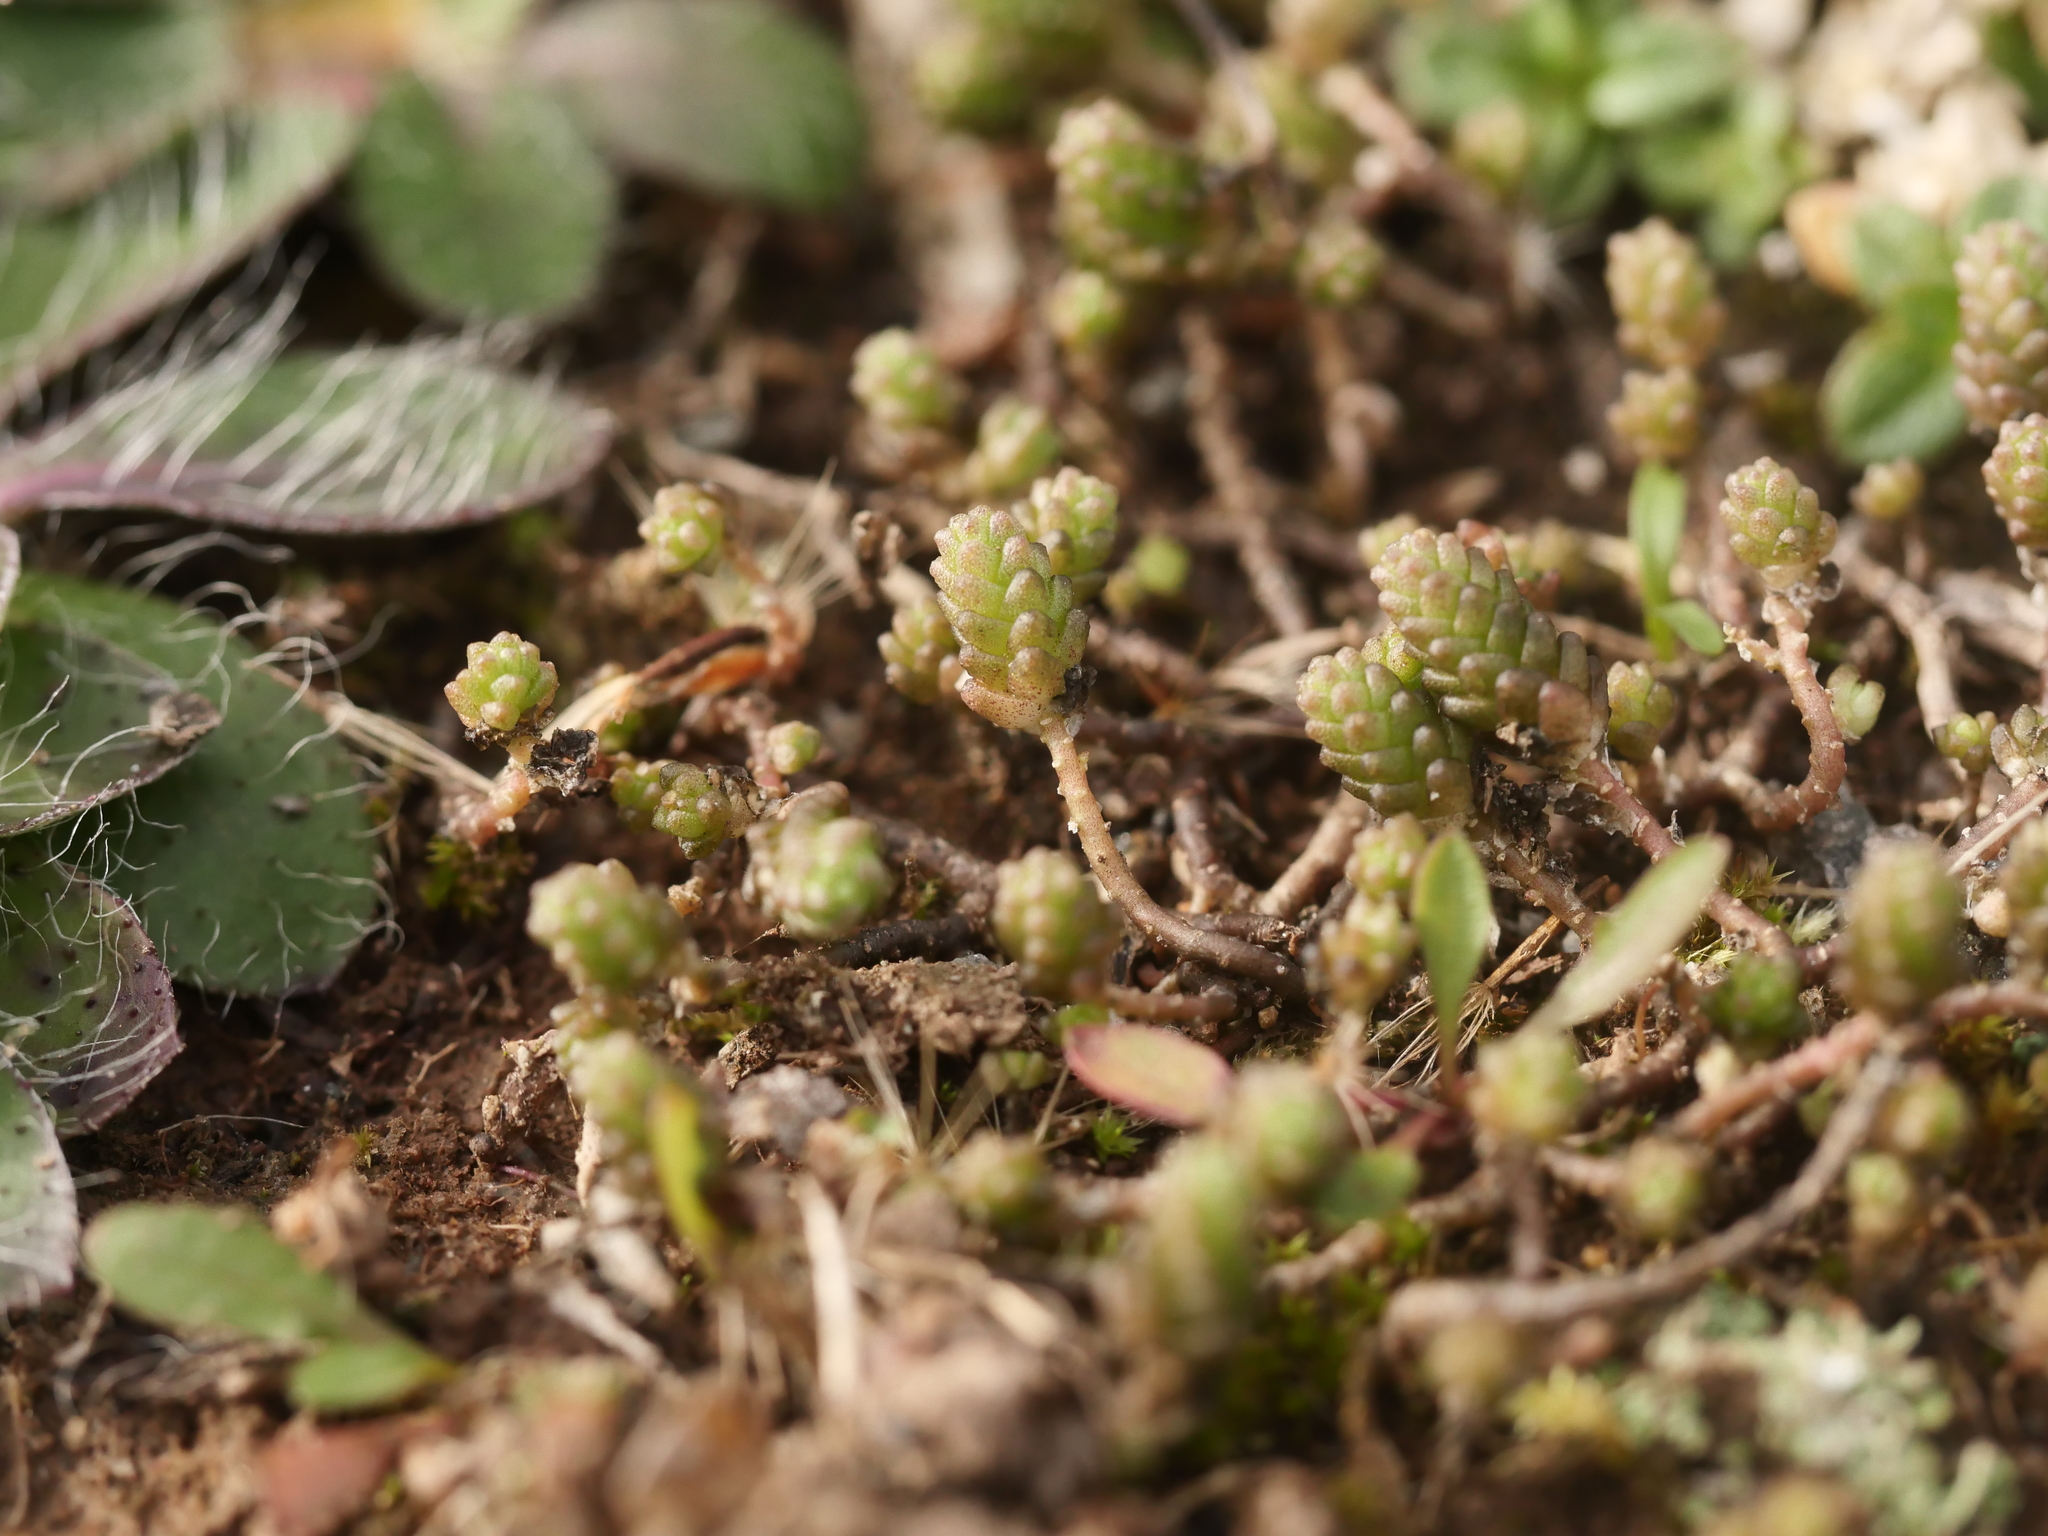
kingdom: Plantae
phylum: Tracheophyta
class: Magnoliopsida
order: Saxifragales
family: Crassulaceae
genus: Sedum
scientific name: Sedum acre
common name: Biting stonecrop
